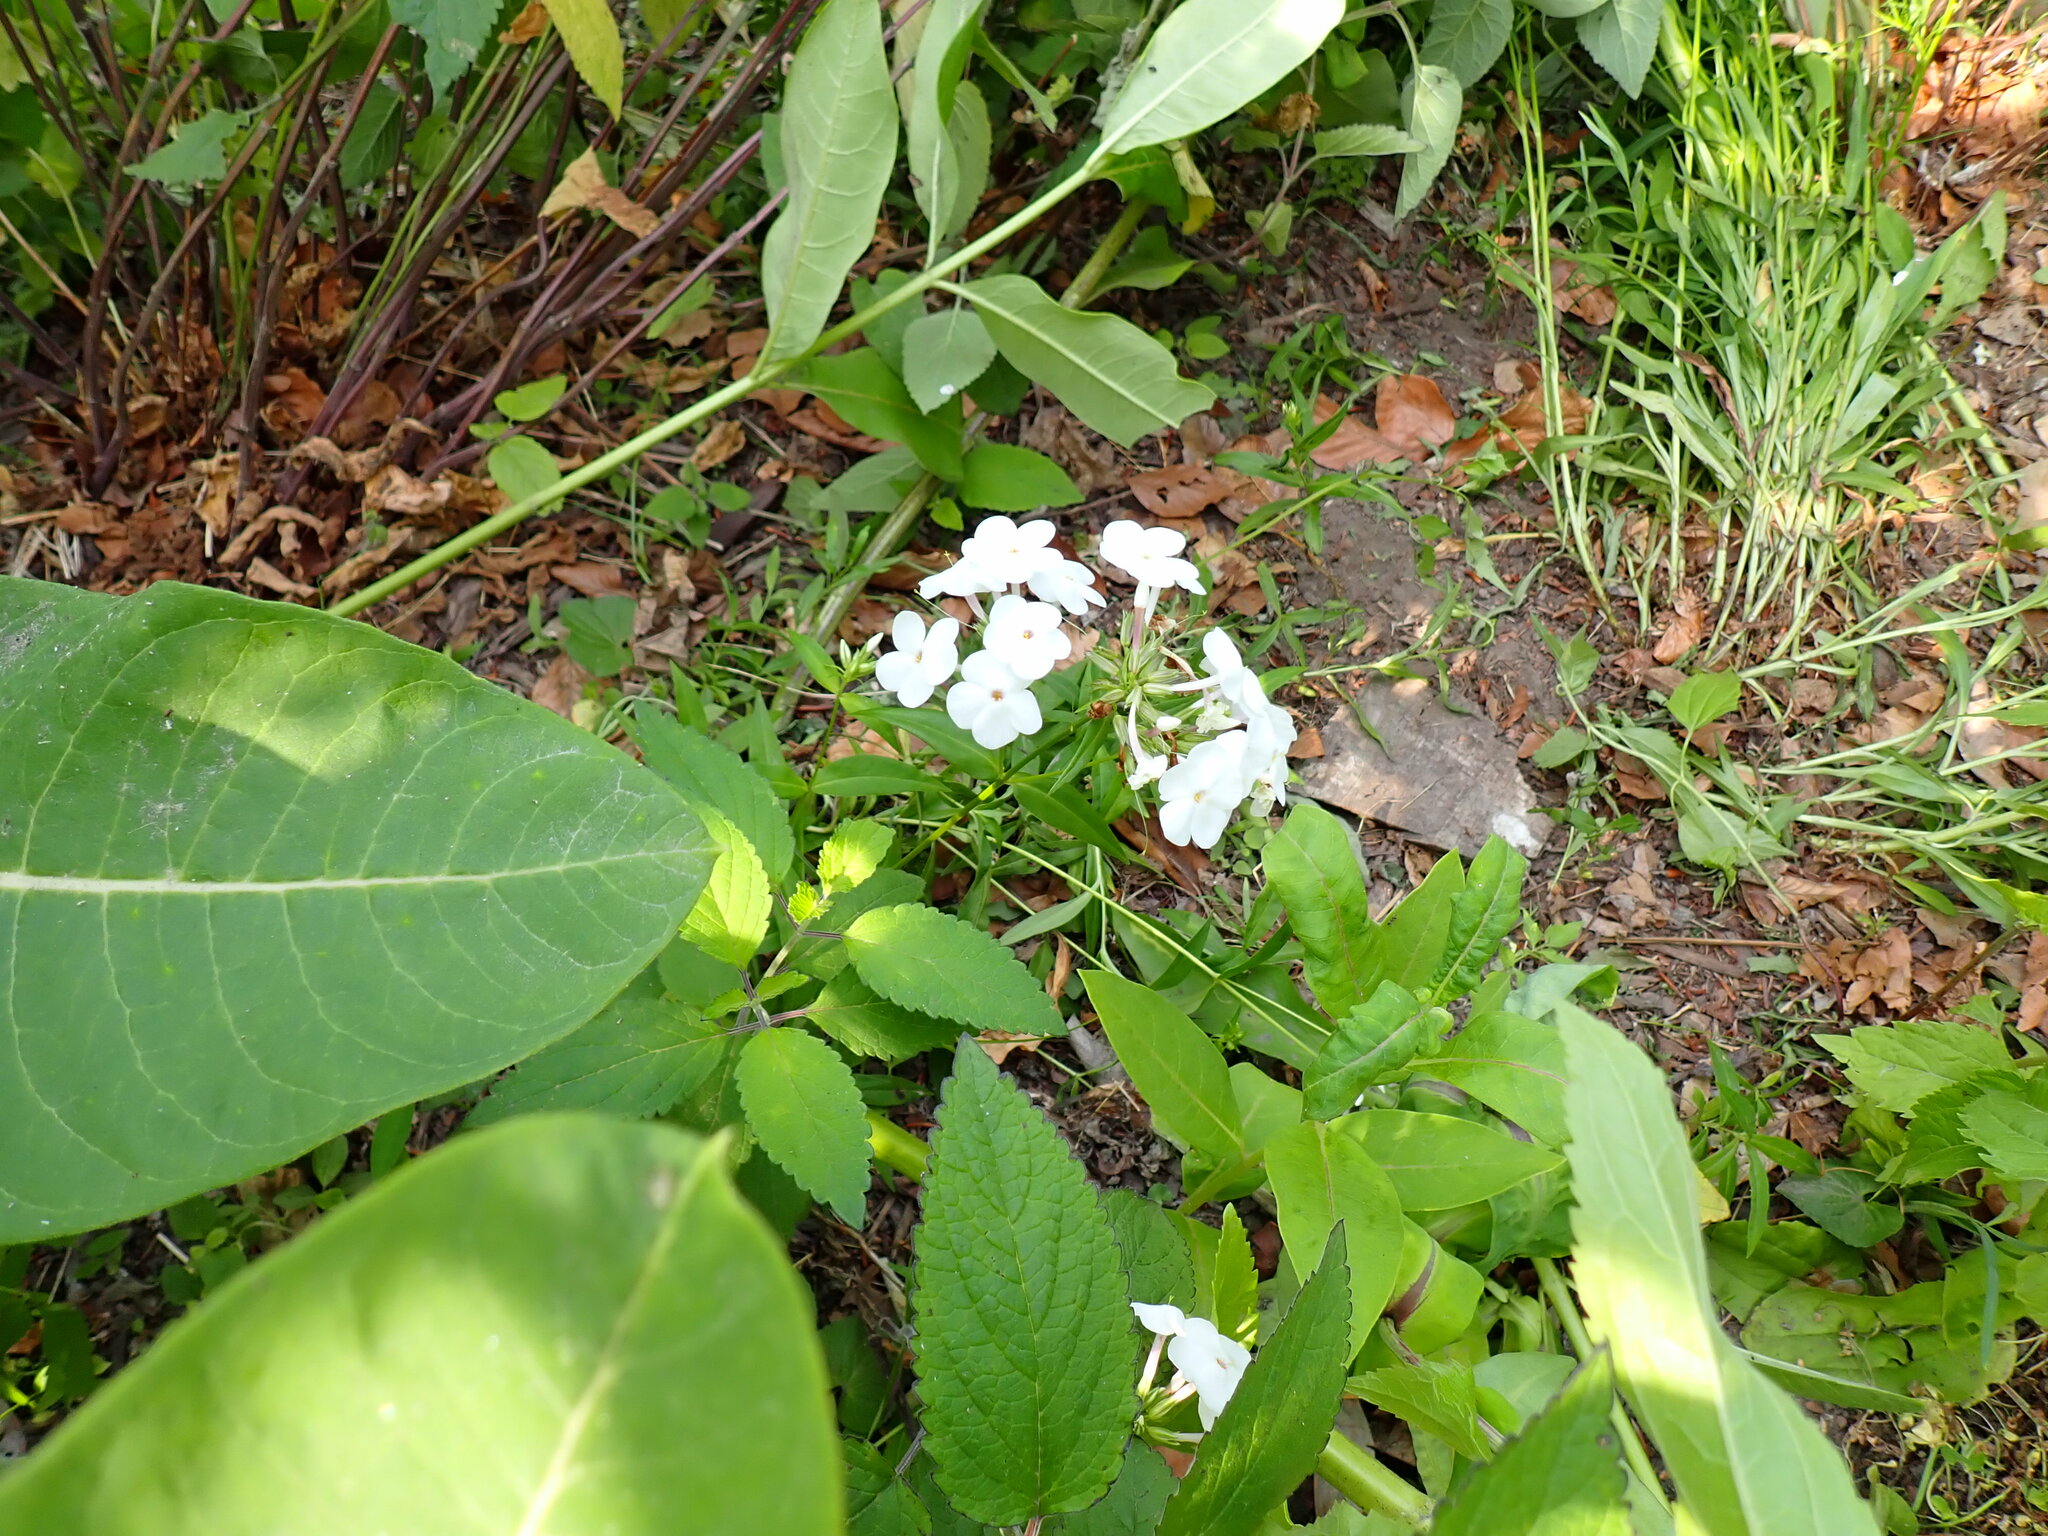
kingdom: Plantae
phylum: Tracheophyta
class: Magnoliopsida
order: Ericales
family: Polemoniaceae
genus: Phlox
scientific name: Phlox paniculata
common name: Fall phlox
